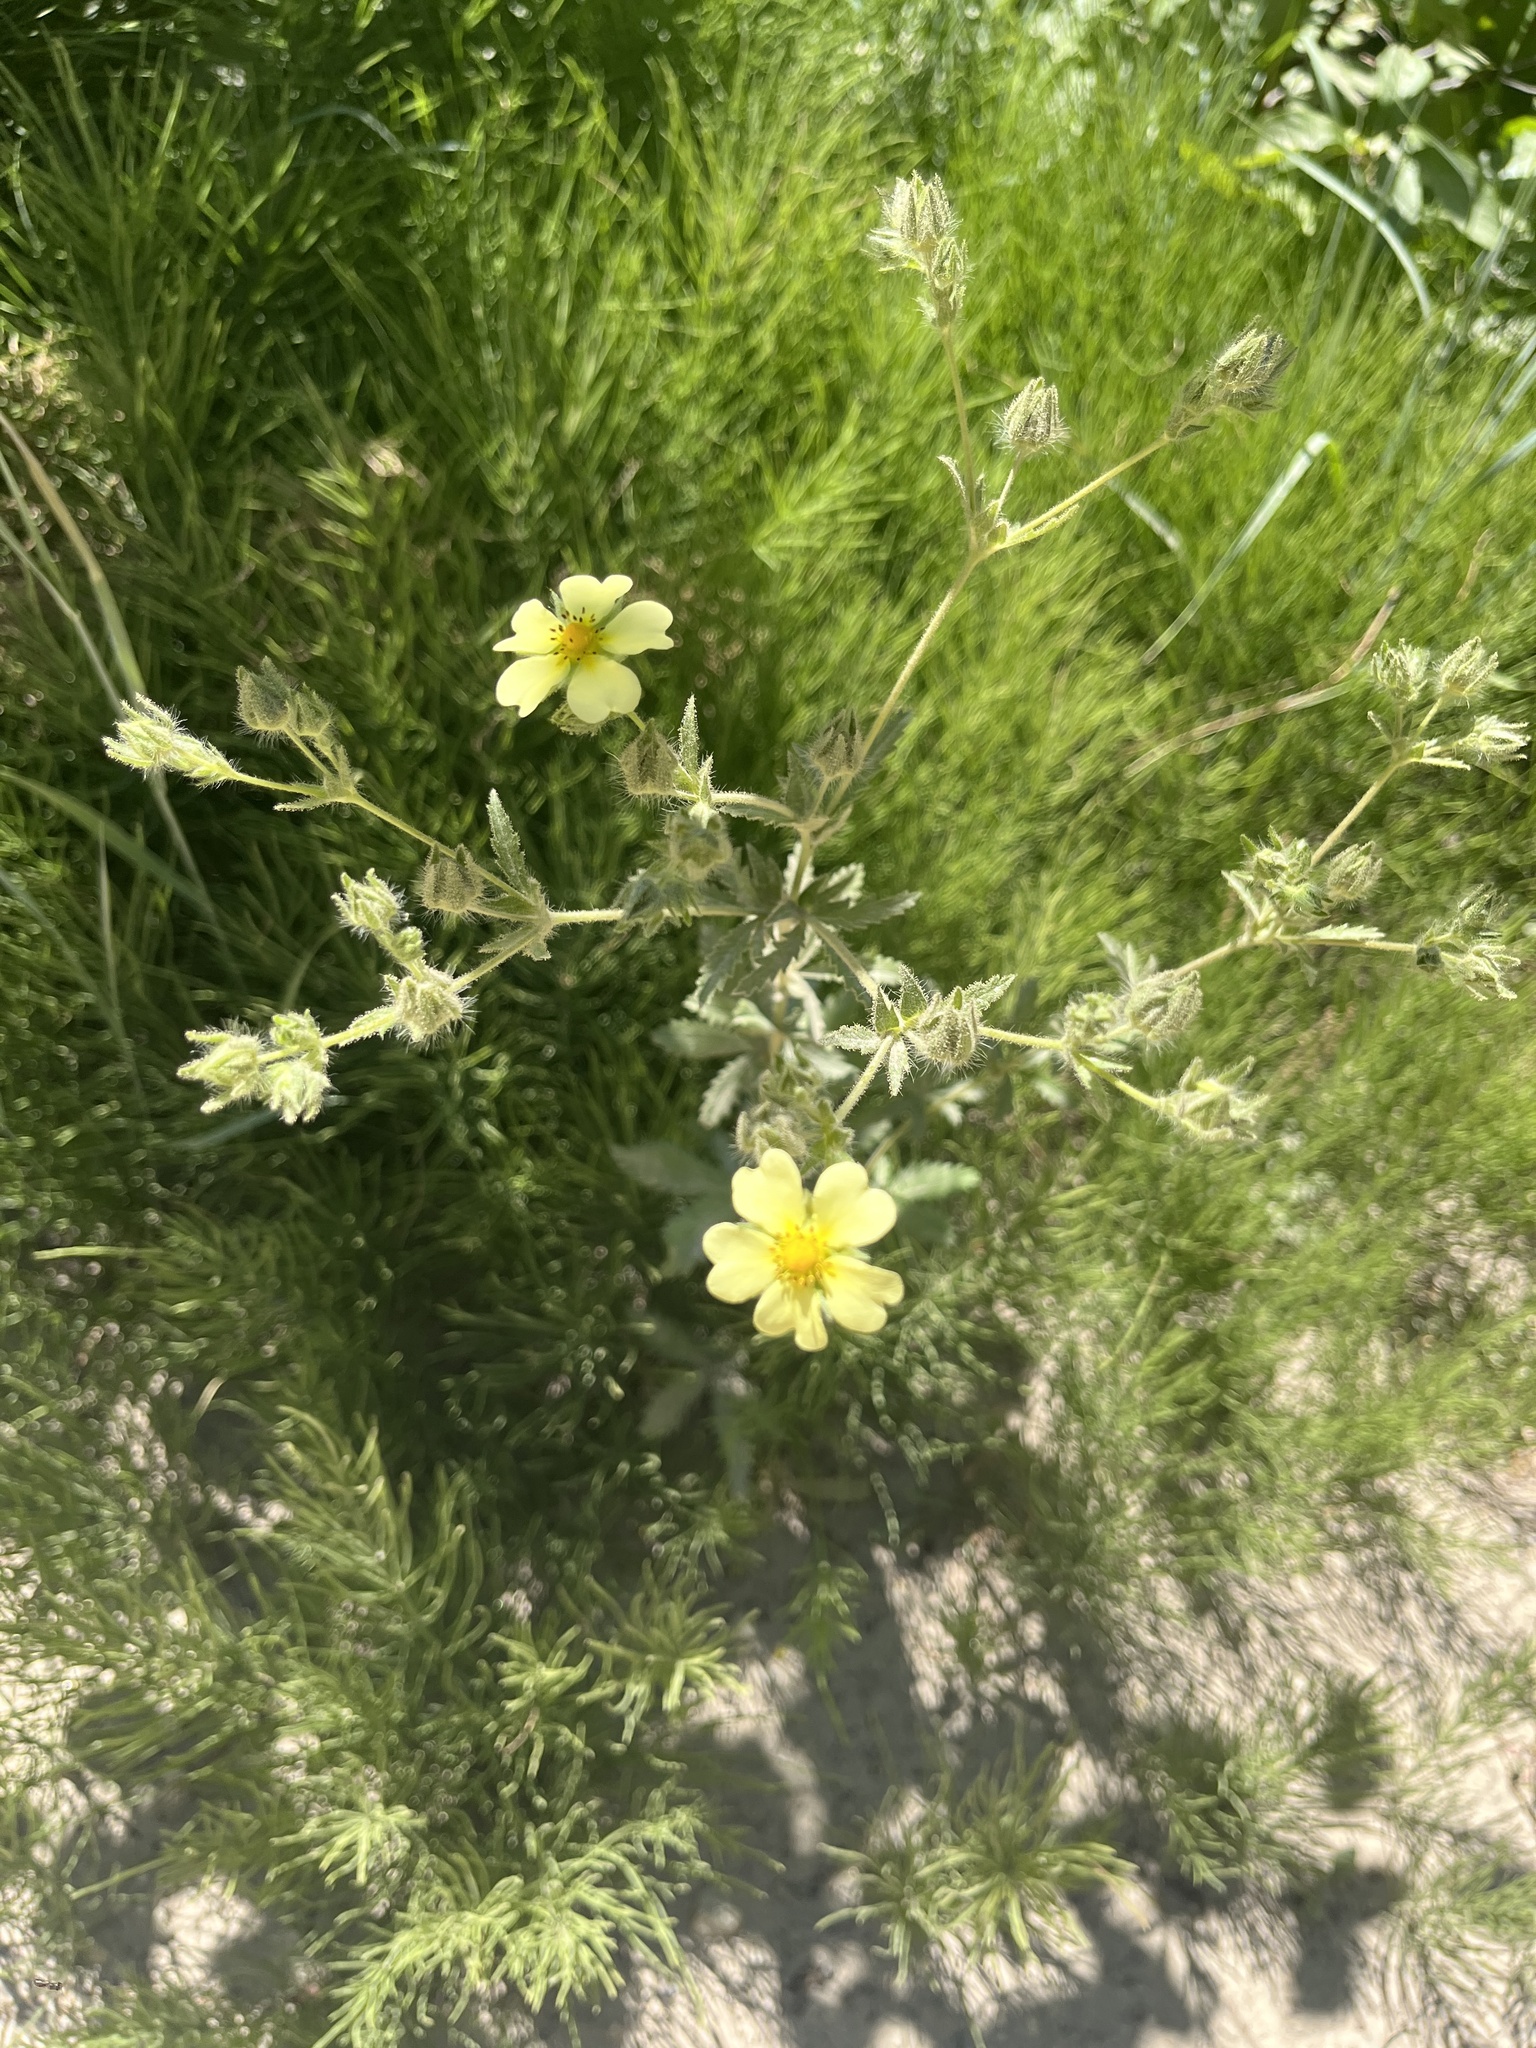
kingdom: Plantae
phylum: Tracheophyta
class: Magnoliopsida
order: Rosales
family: Rosaceae
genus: Potentilla
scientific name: Potentilla recta
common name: Sulphur cinquefoil
